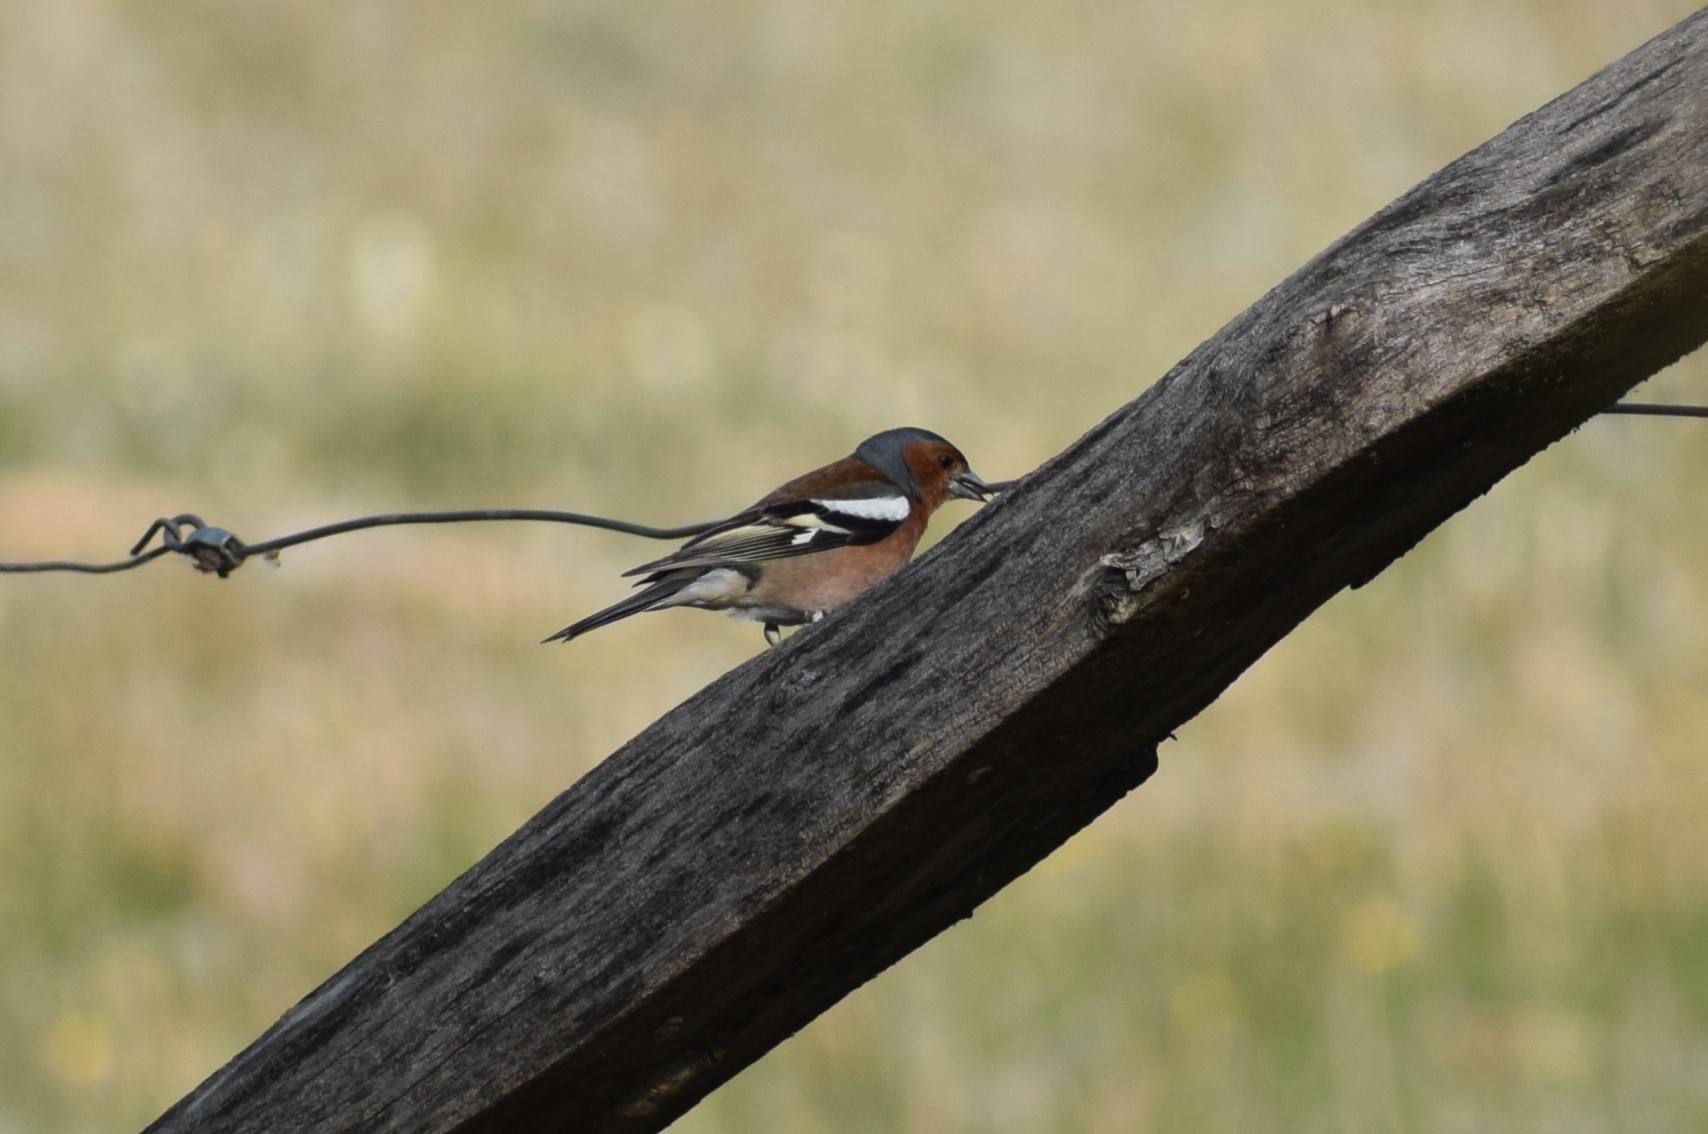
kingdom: Animalia
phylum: Chordata
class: Aves
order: Passeriformes
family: Fringillidae
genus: Fringilla
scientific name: Fringilla coelebs
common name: Common chaffinch
